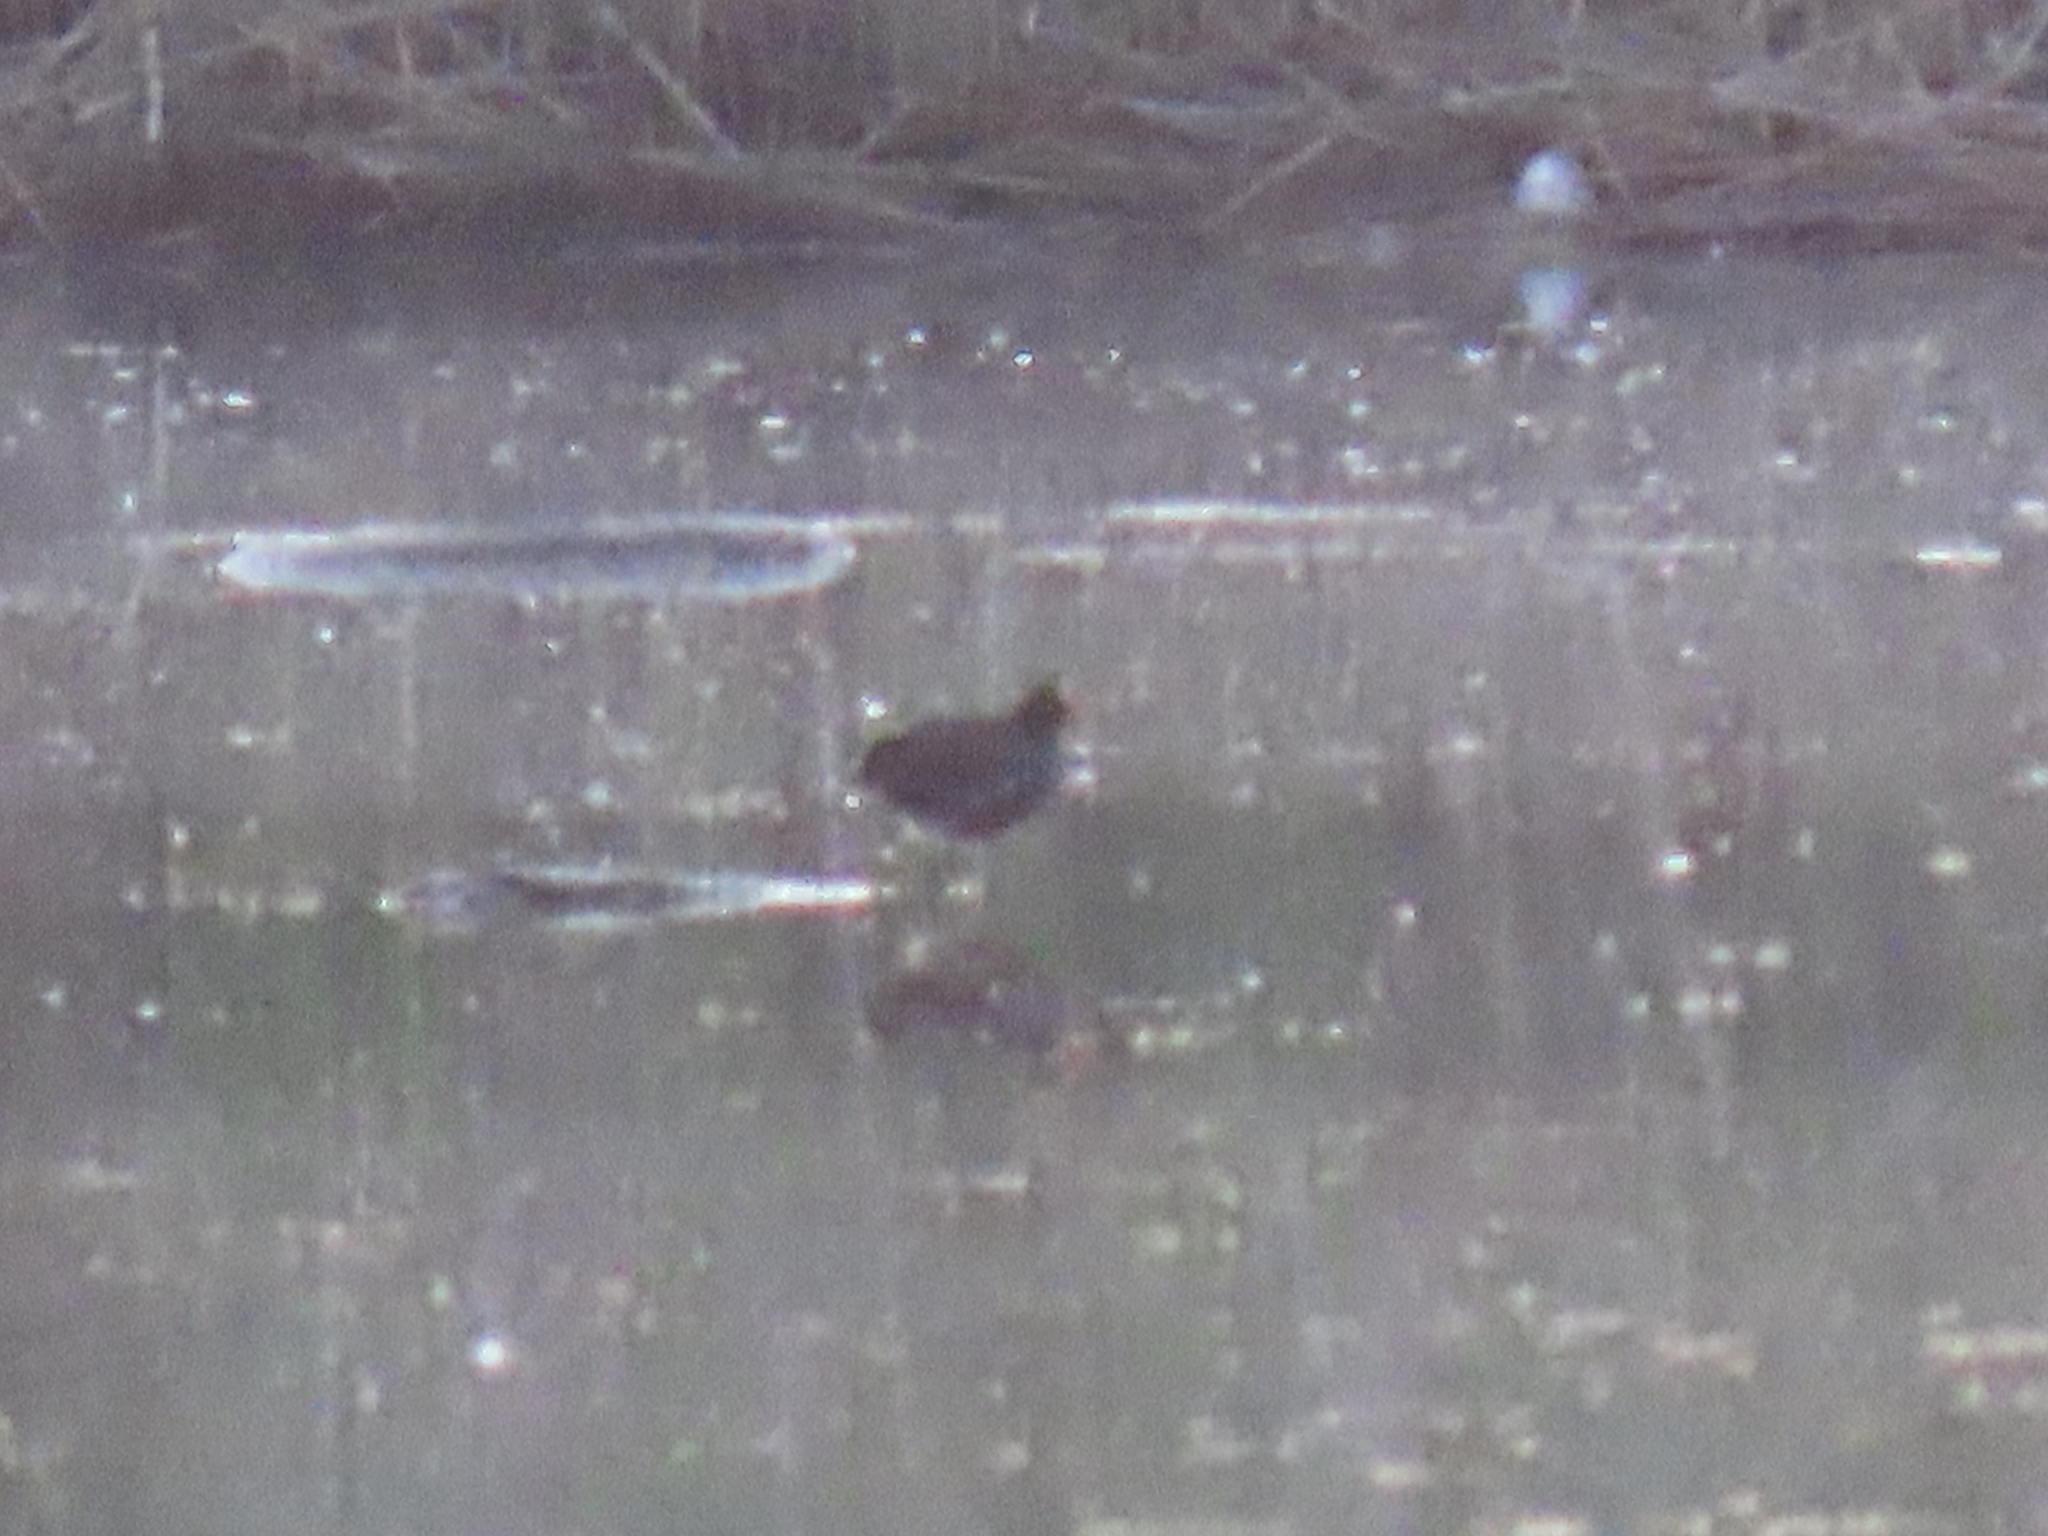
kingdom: Animalia
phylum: Chordata
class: Aves
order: Gruiformes
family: Rallidae
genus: Gallinula
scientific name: Gallinula chloropus
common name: Common moorhen
